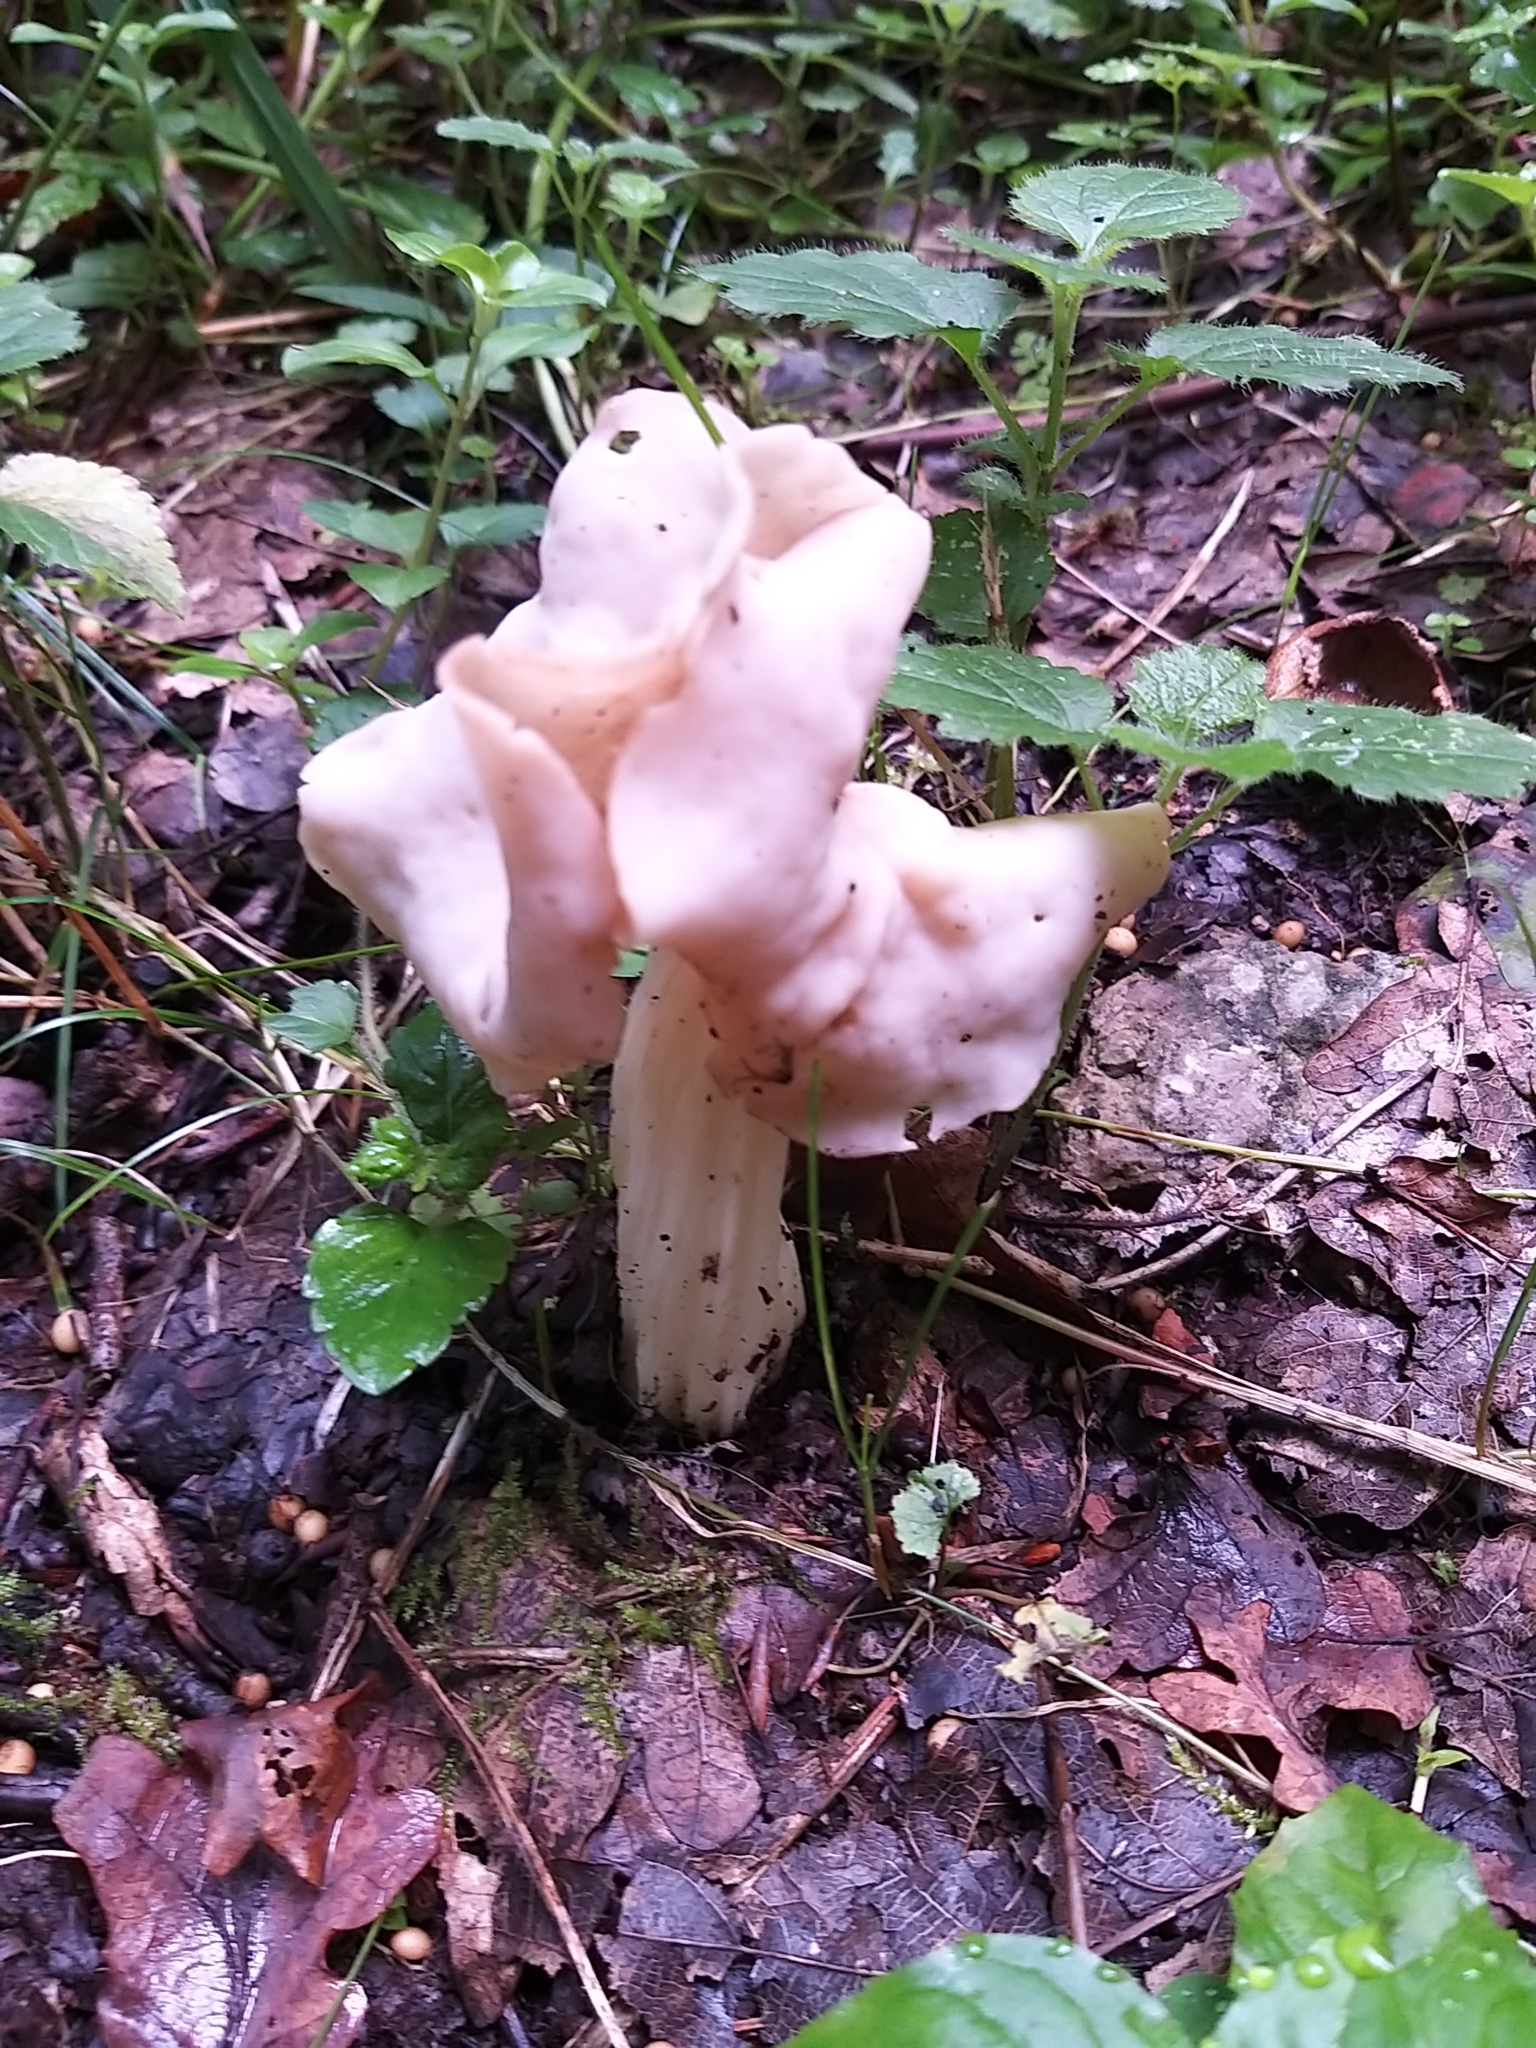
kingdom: Fungi
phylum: Ascomycota
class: Pezizomycetes
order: Pezizales
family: Helvellaceae
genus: Helvella
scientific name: Helvella crispa
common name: White saddle
